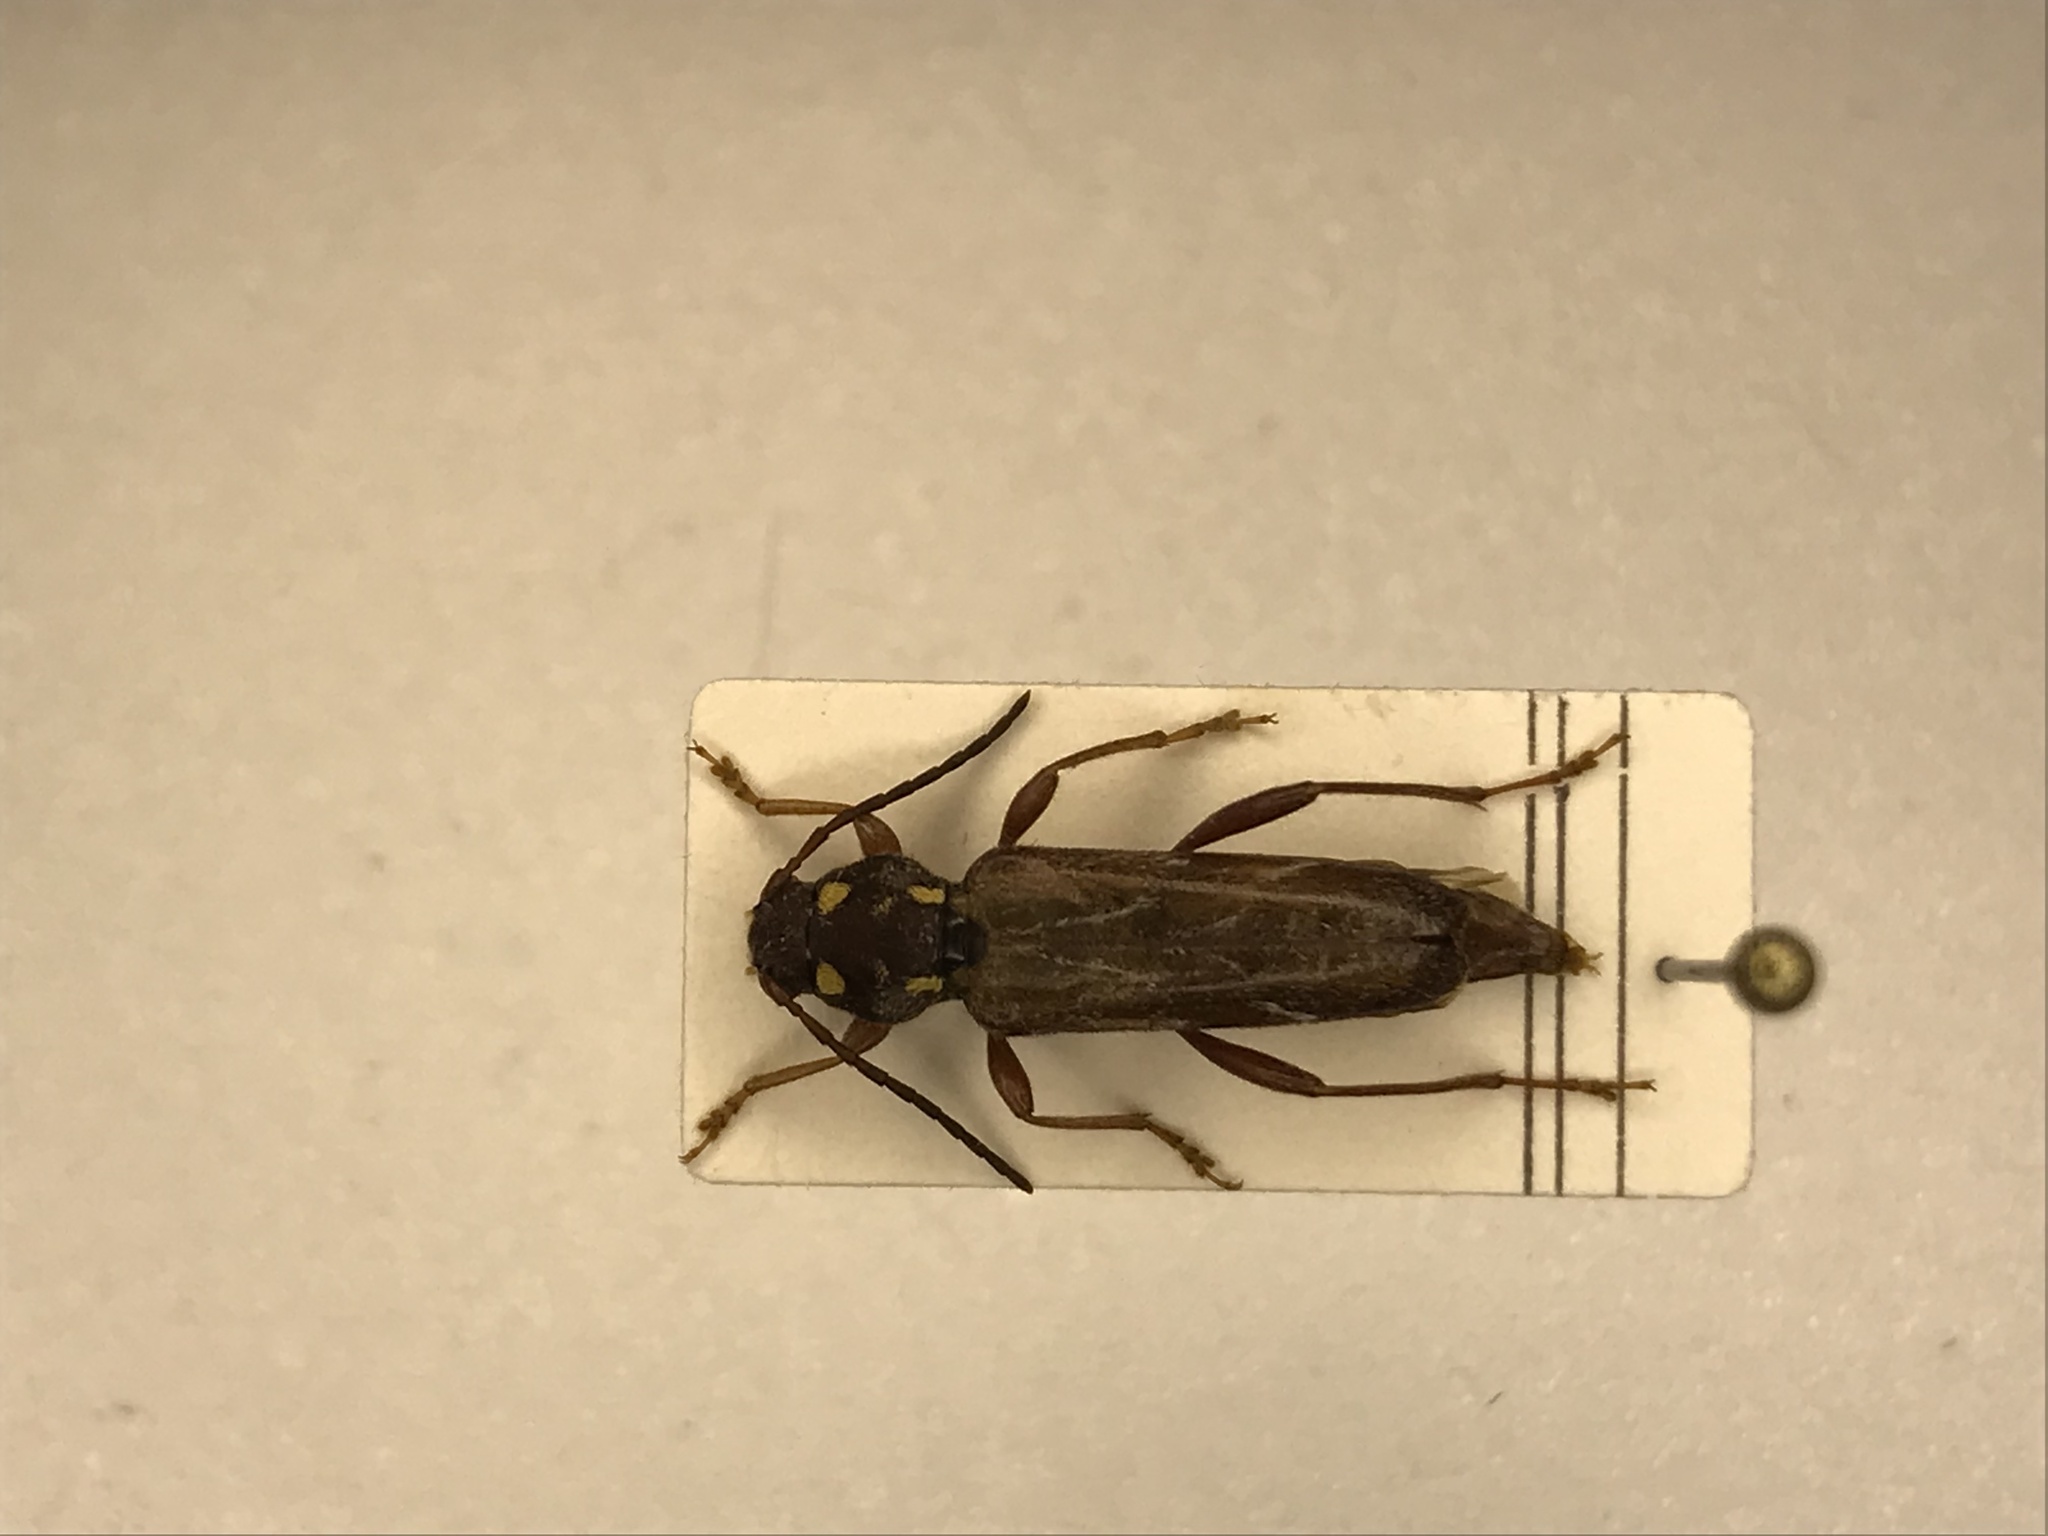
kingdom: Animalia
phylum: Arthropoda
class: Insecta
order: Coleoptera
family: Cerambycidae
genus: Xylotrechus
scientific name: Xylotrechus quadrimaculatus
